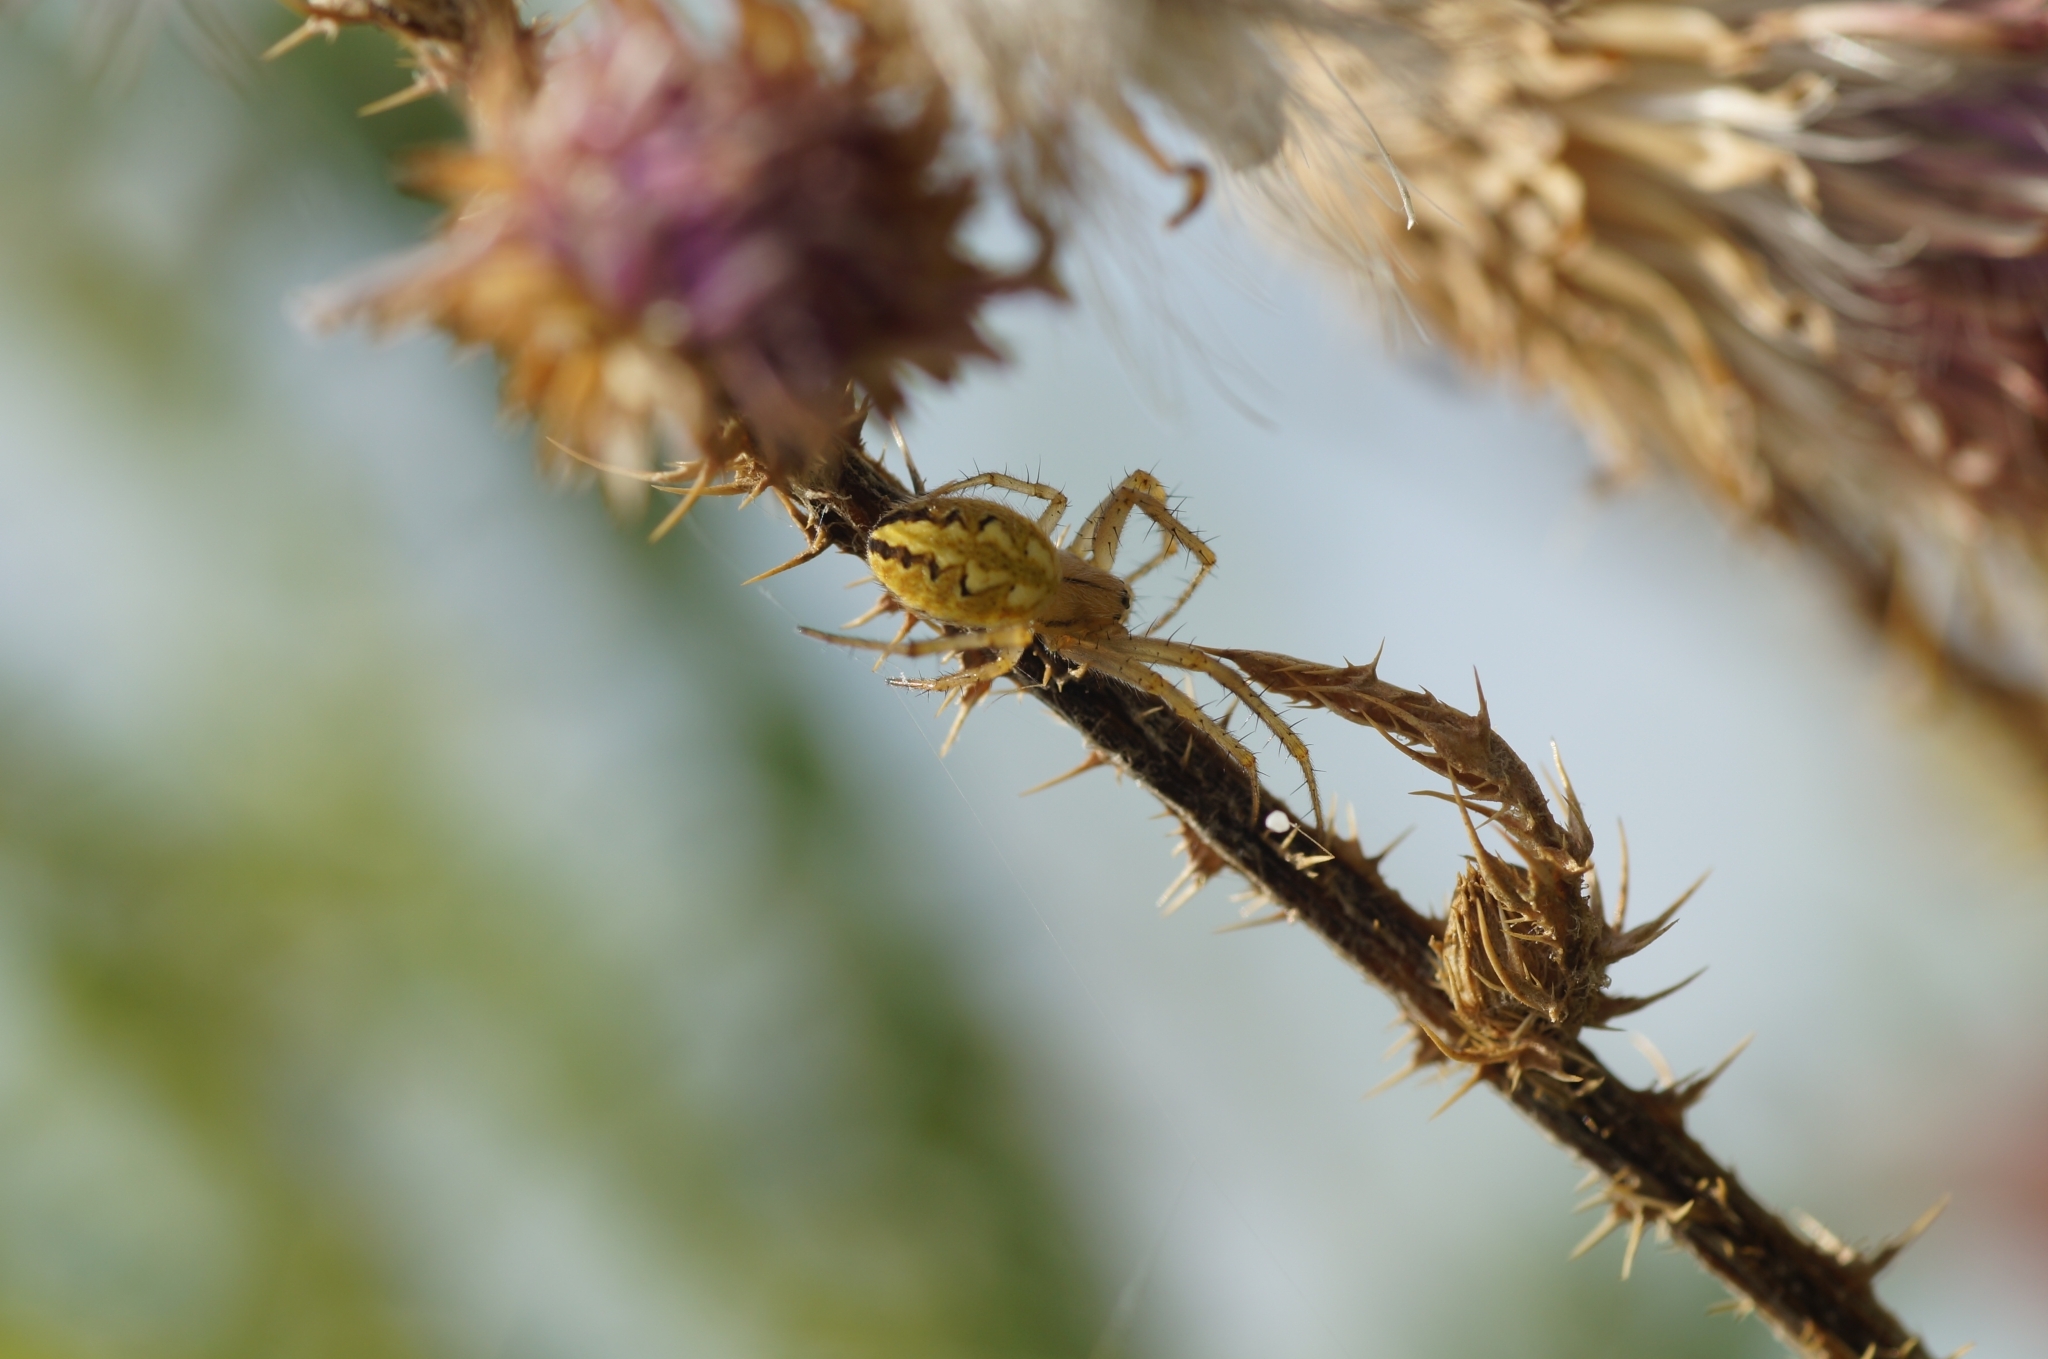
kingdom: Animalia
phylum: Arthropoda
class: Arachnida
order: Araneae
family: Araneidae
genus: Neoscona
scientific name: Neoscona adianta
